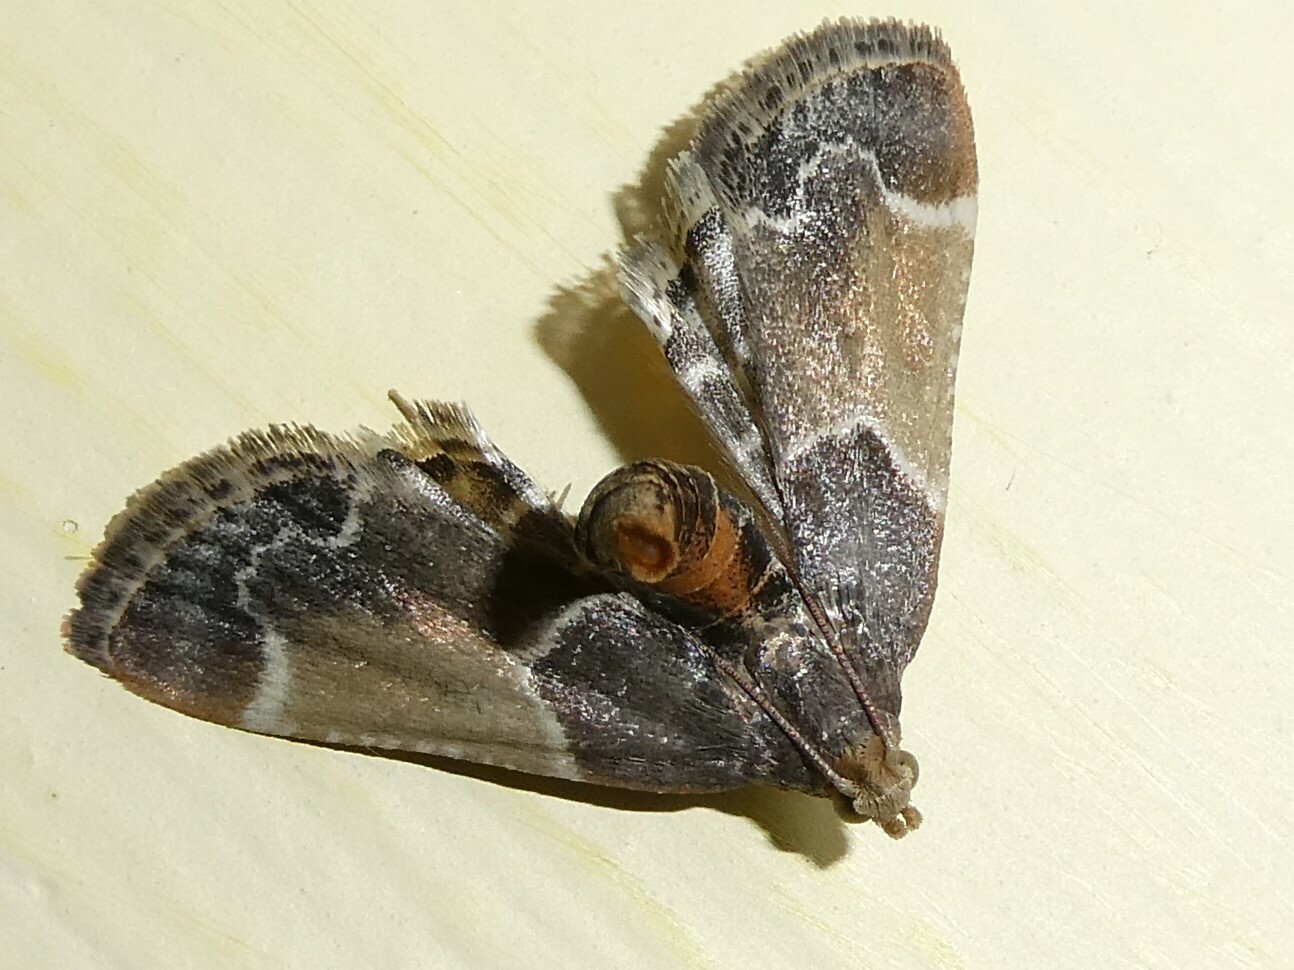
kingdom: Animalia
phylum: Arthropoda
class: Insecta
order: Lepidoptera
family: Pyralidae
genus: Pyralis
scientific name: Pyralis farinalis
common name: Meal moth
